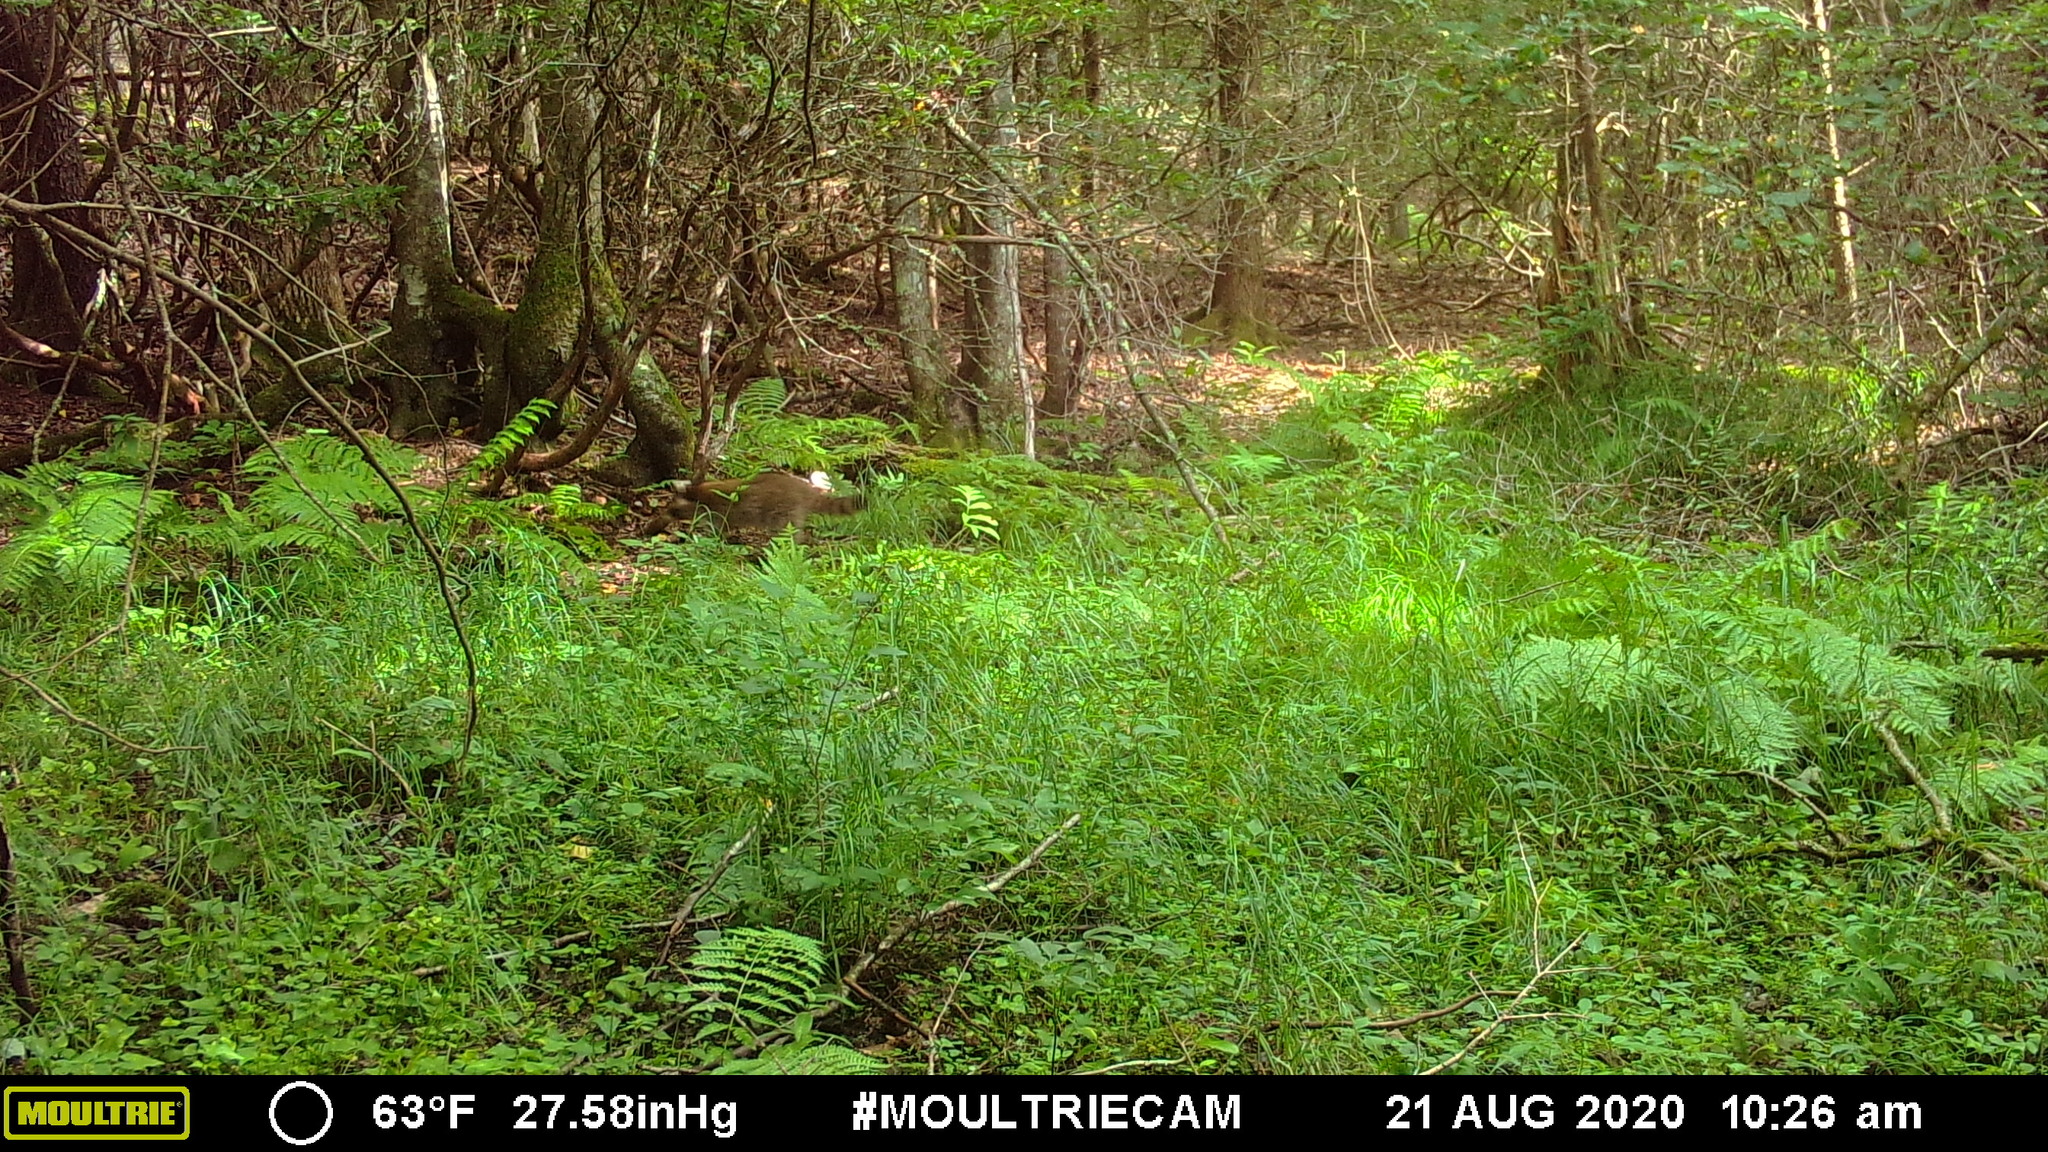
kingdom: Animalia
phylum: Chordata
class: Mammalia
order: Carnivora
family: Procyonidae
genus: Procyon
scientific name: Procyon lotor
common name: Raccoon
